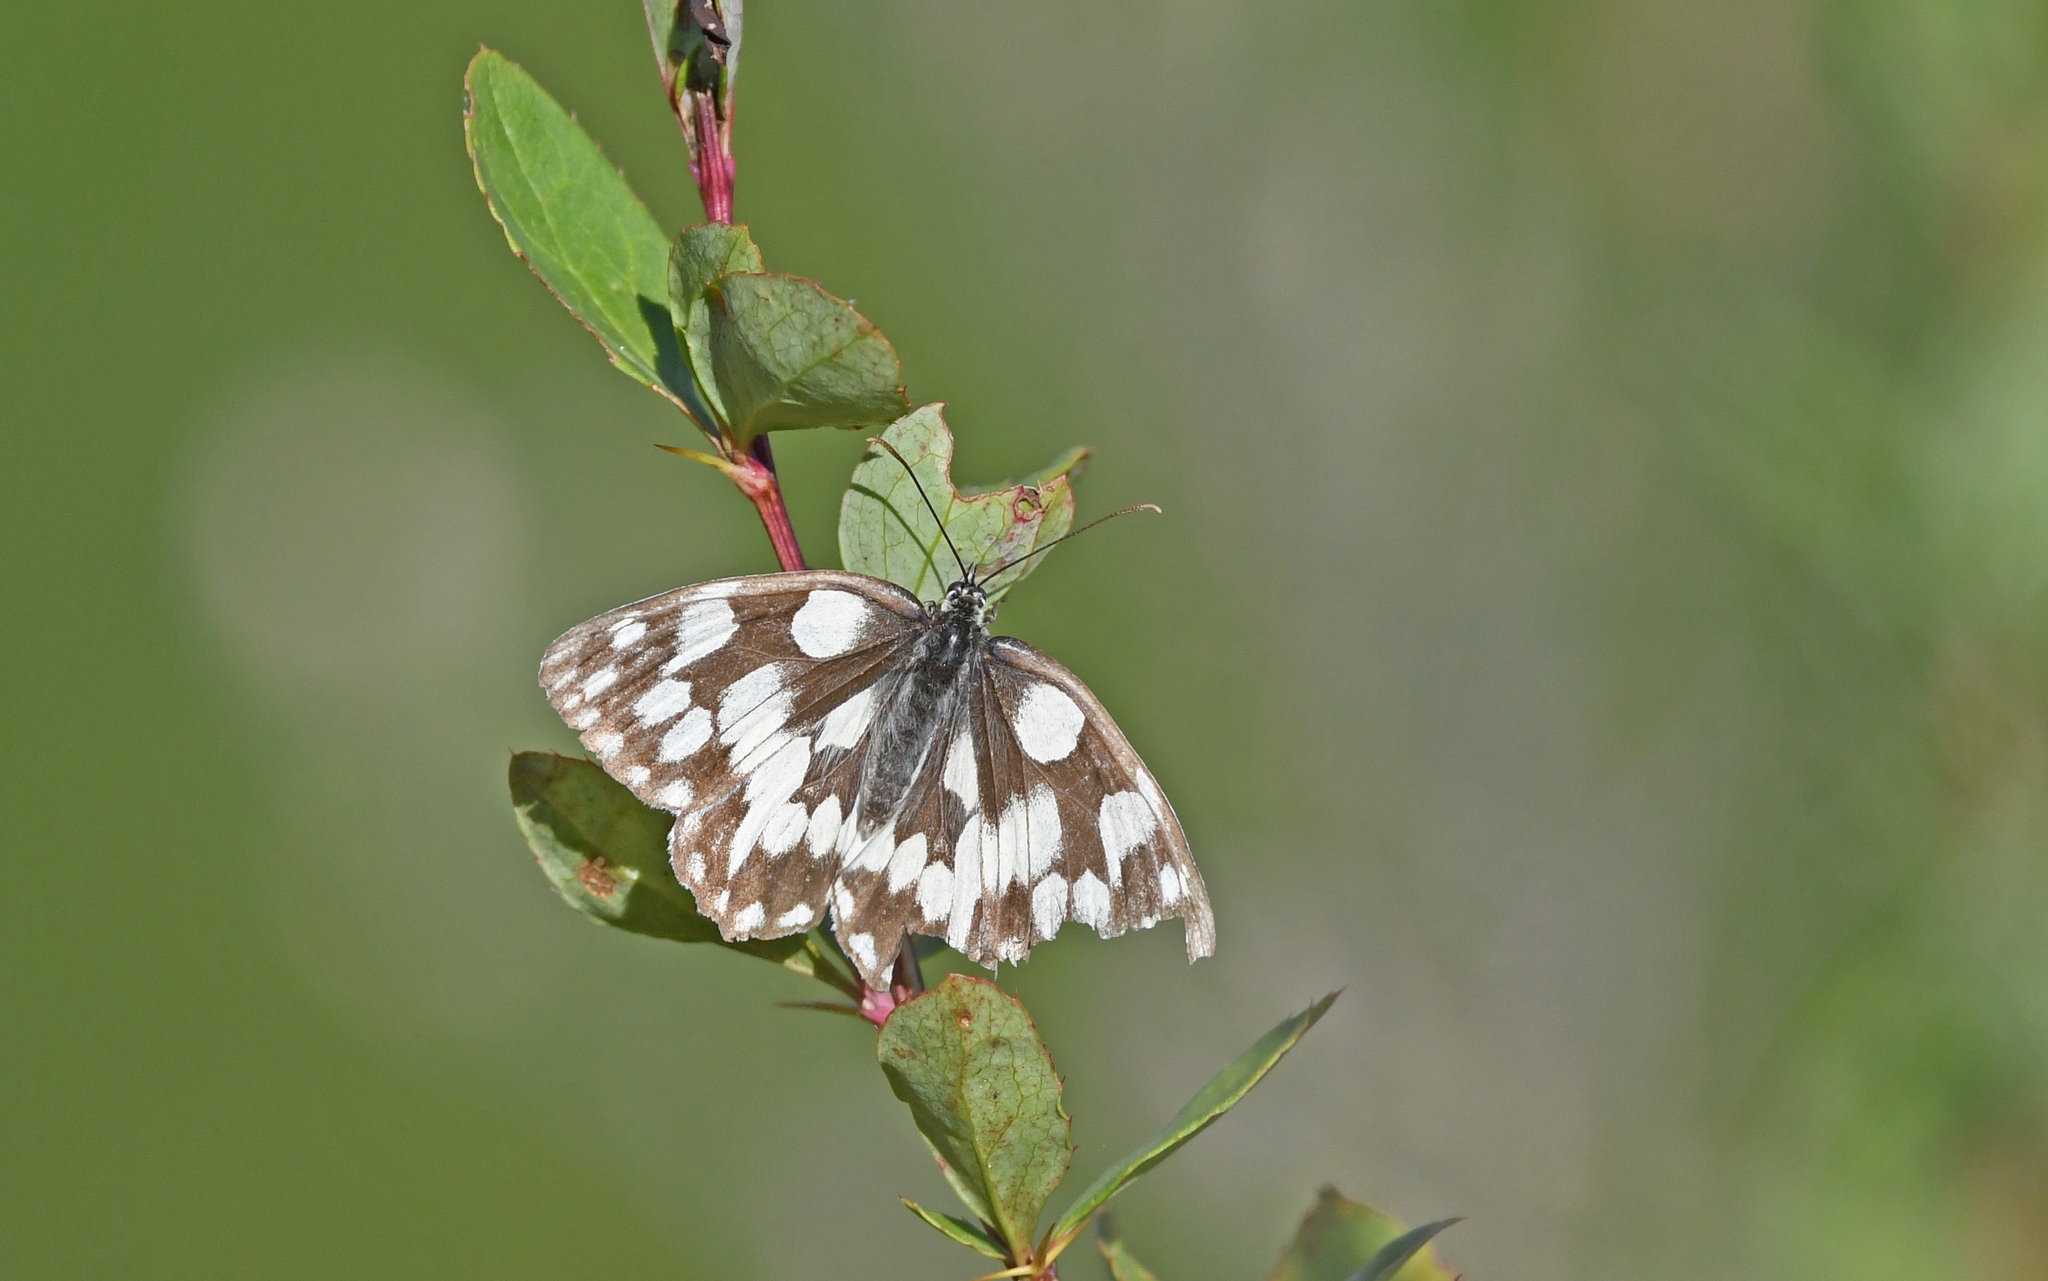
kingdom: Animalia
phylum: Arthropoda
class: Insecta
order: Lepidoptera
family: Nymphalidae
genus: Melanargia
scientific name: Melanargia galathea
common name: Marbled white
